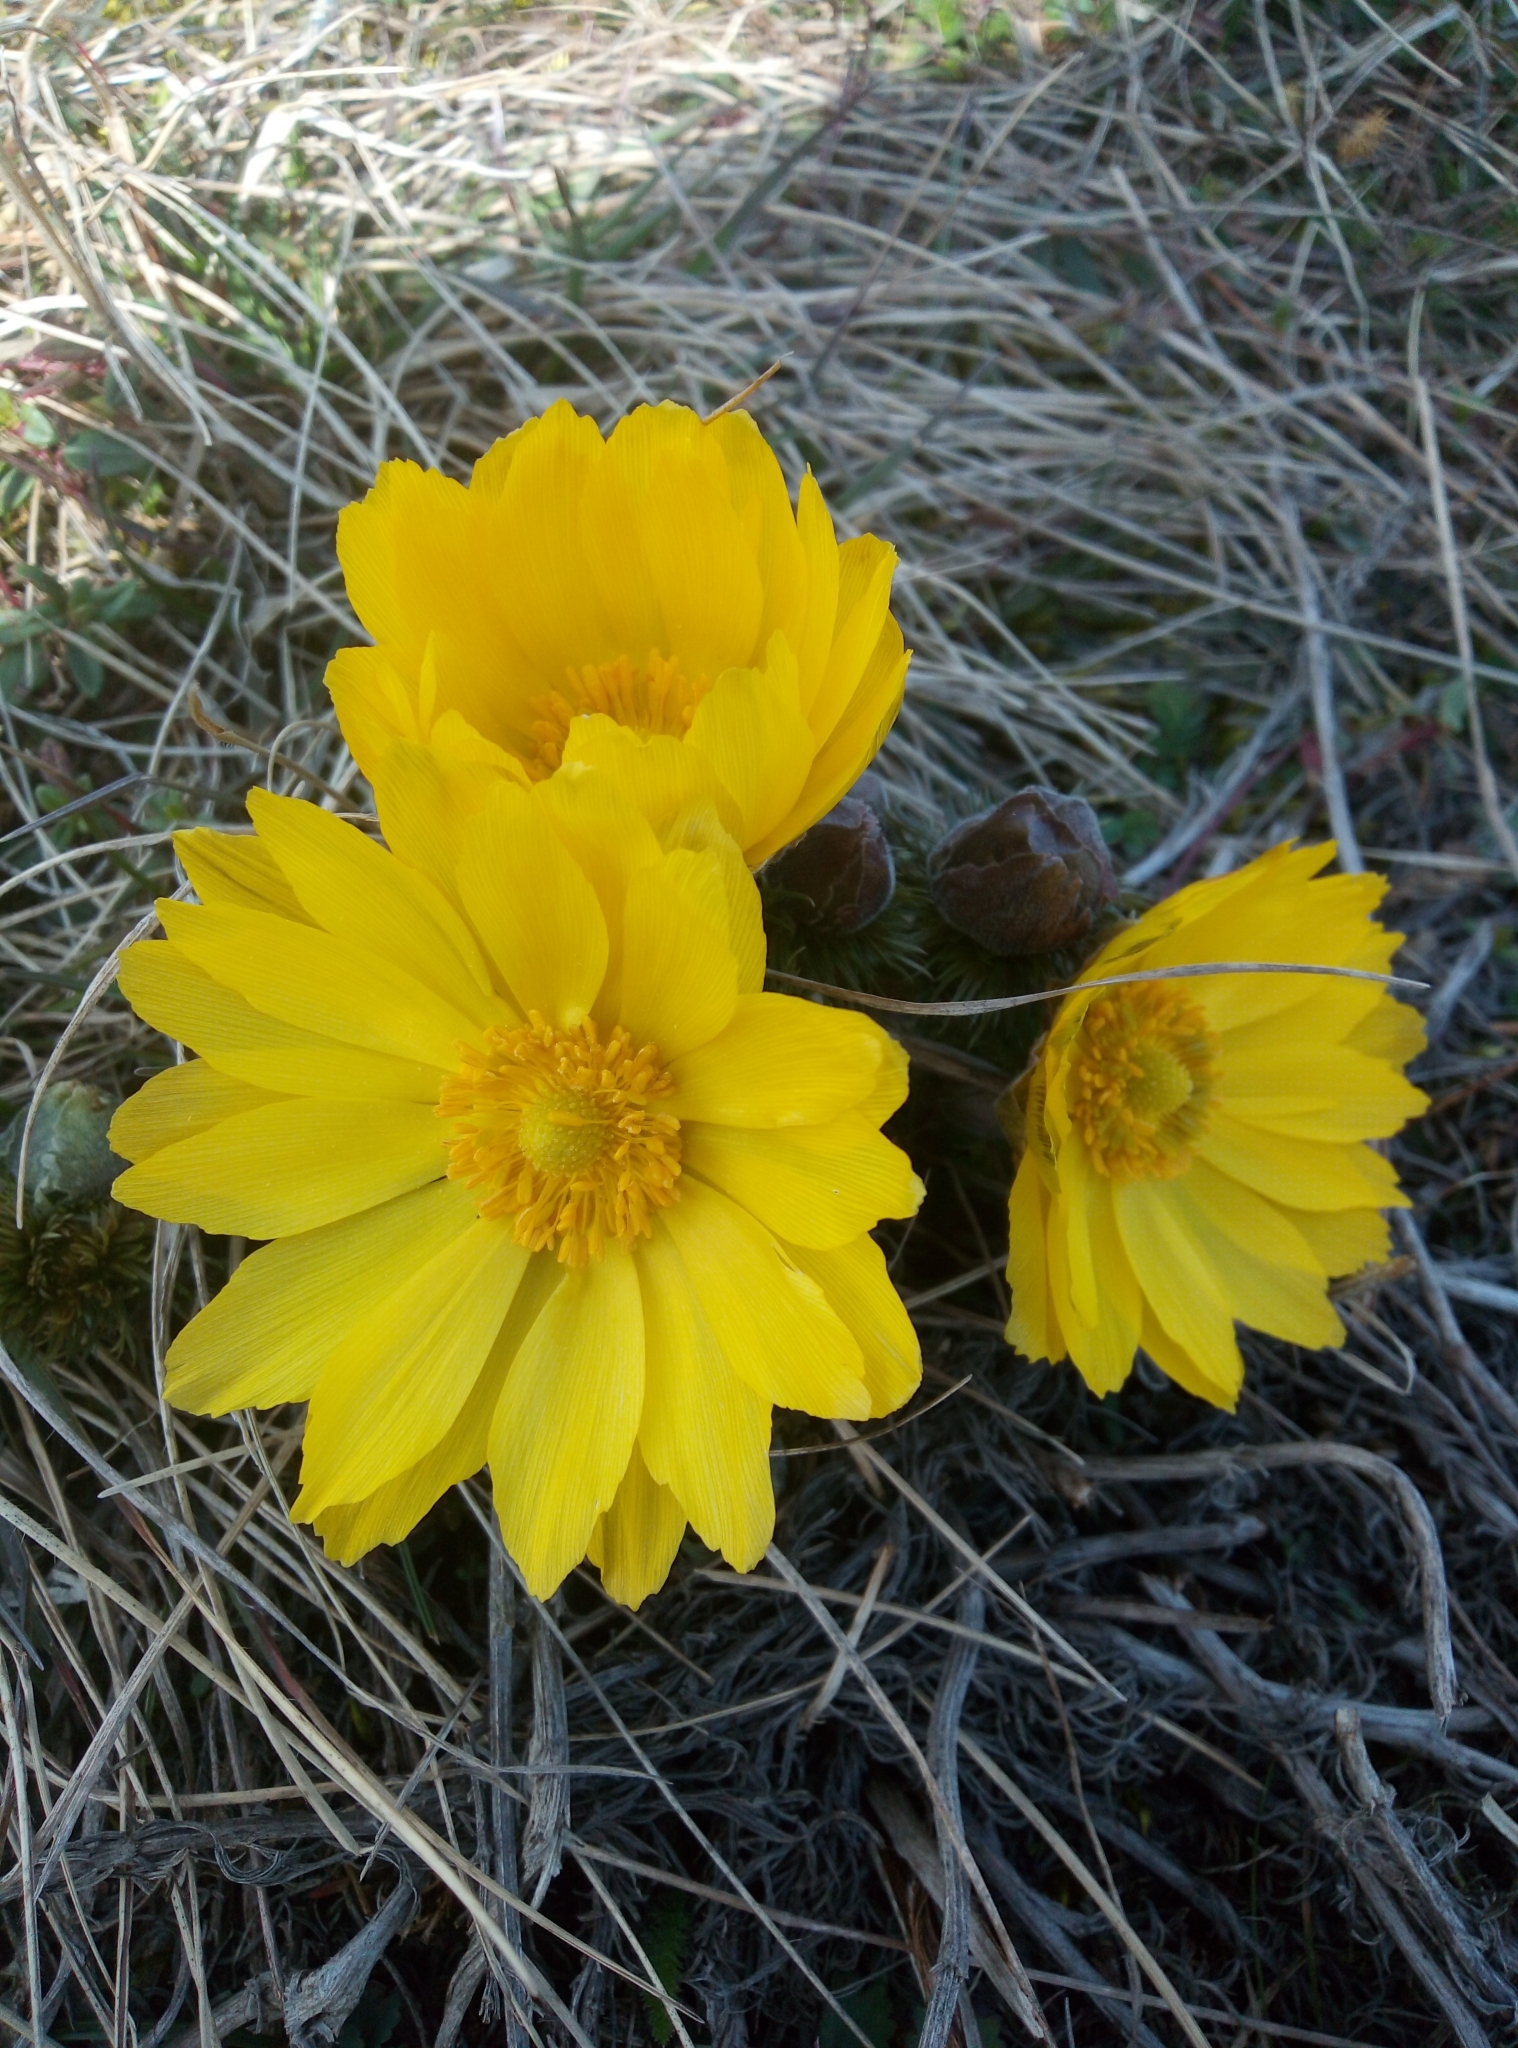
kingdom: Plantae
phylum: Tracheophyta
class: Magnoliopsida
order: Ranunculales
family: Ranunculaceae
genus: Adonis
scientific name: Adonis vernalis
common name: Yellow pheasants-eye
